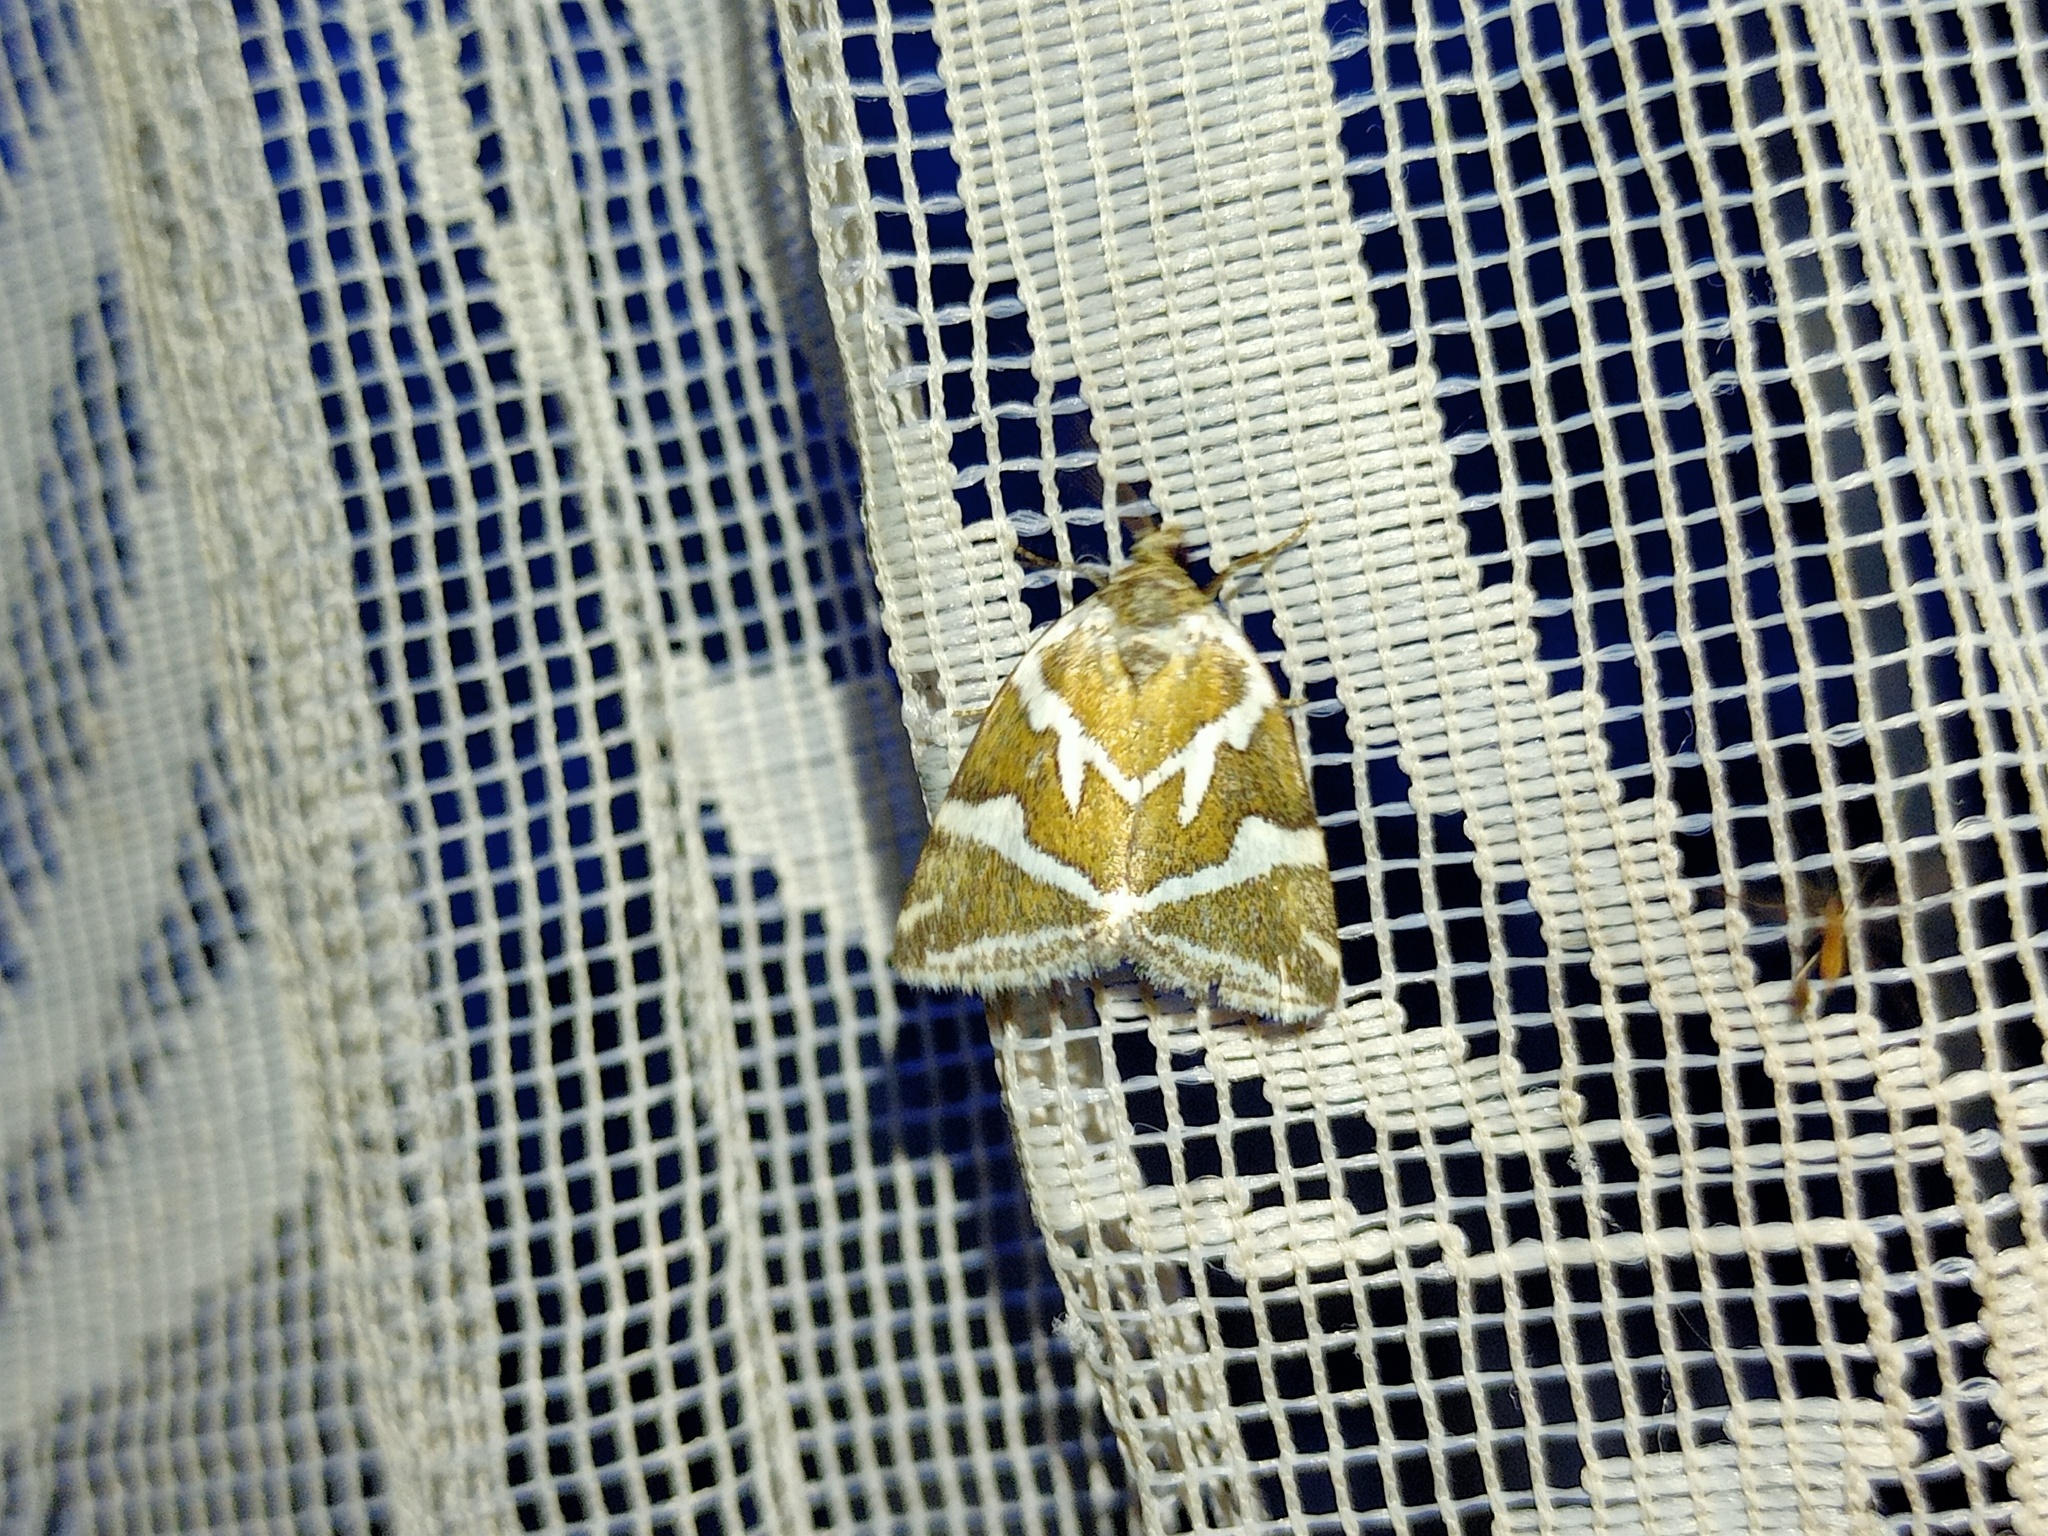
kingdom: Animalia
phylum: Arthropoda
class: Insecta
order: Lepidoptera
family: Noctuidae
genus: Deltote
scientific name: Deltote bankiana
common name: Silver barred
